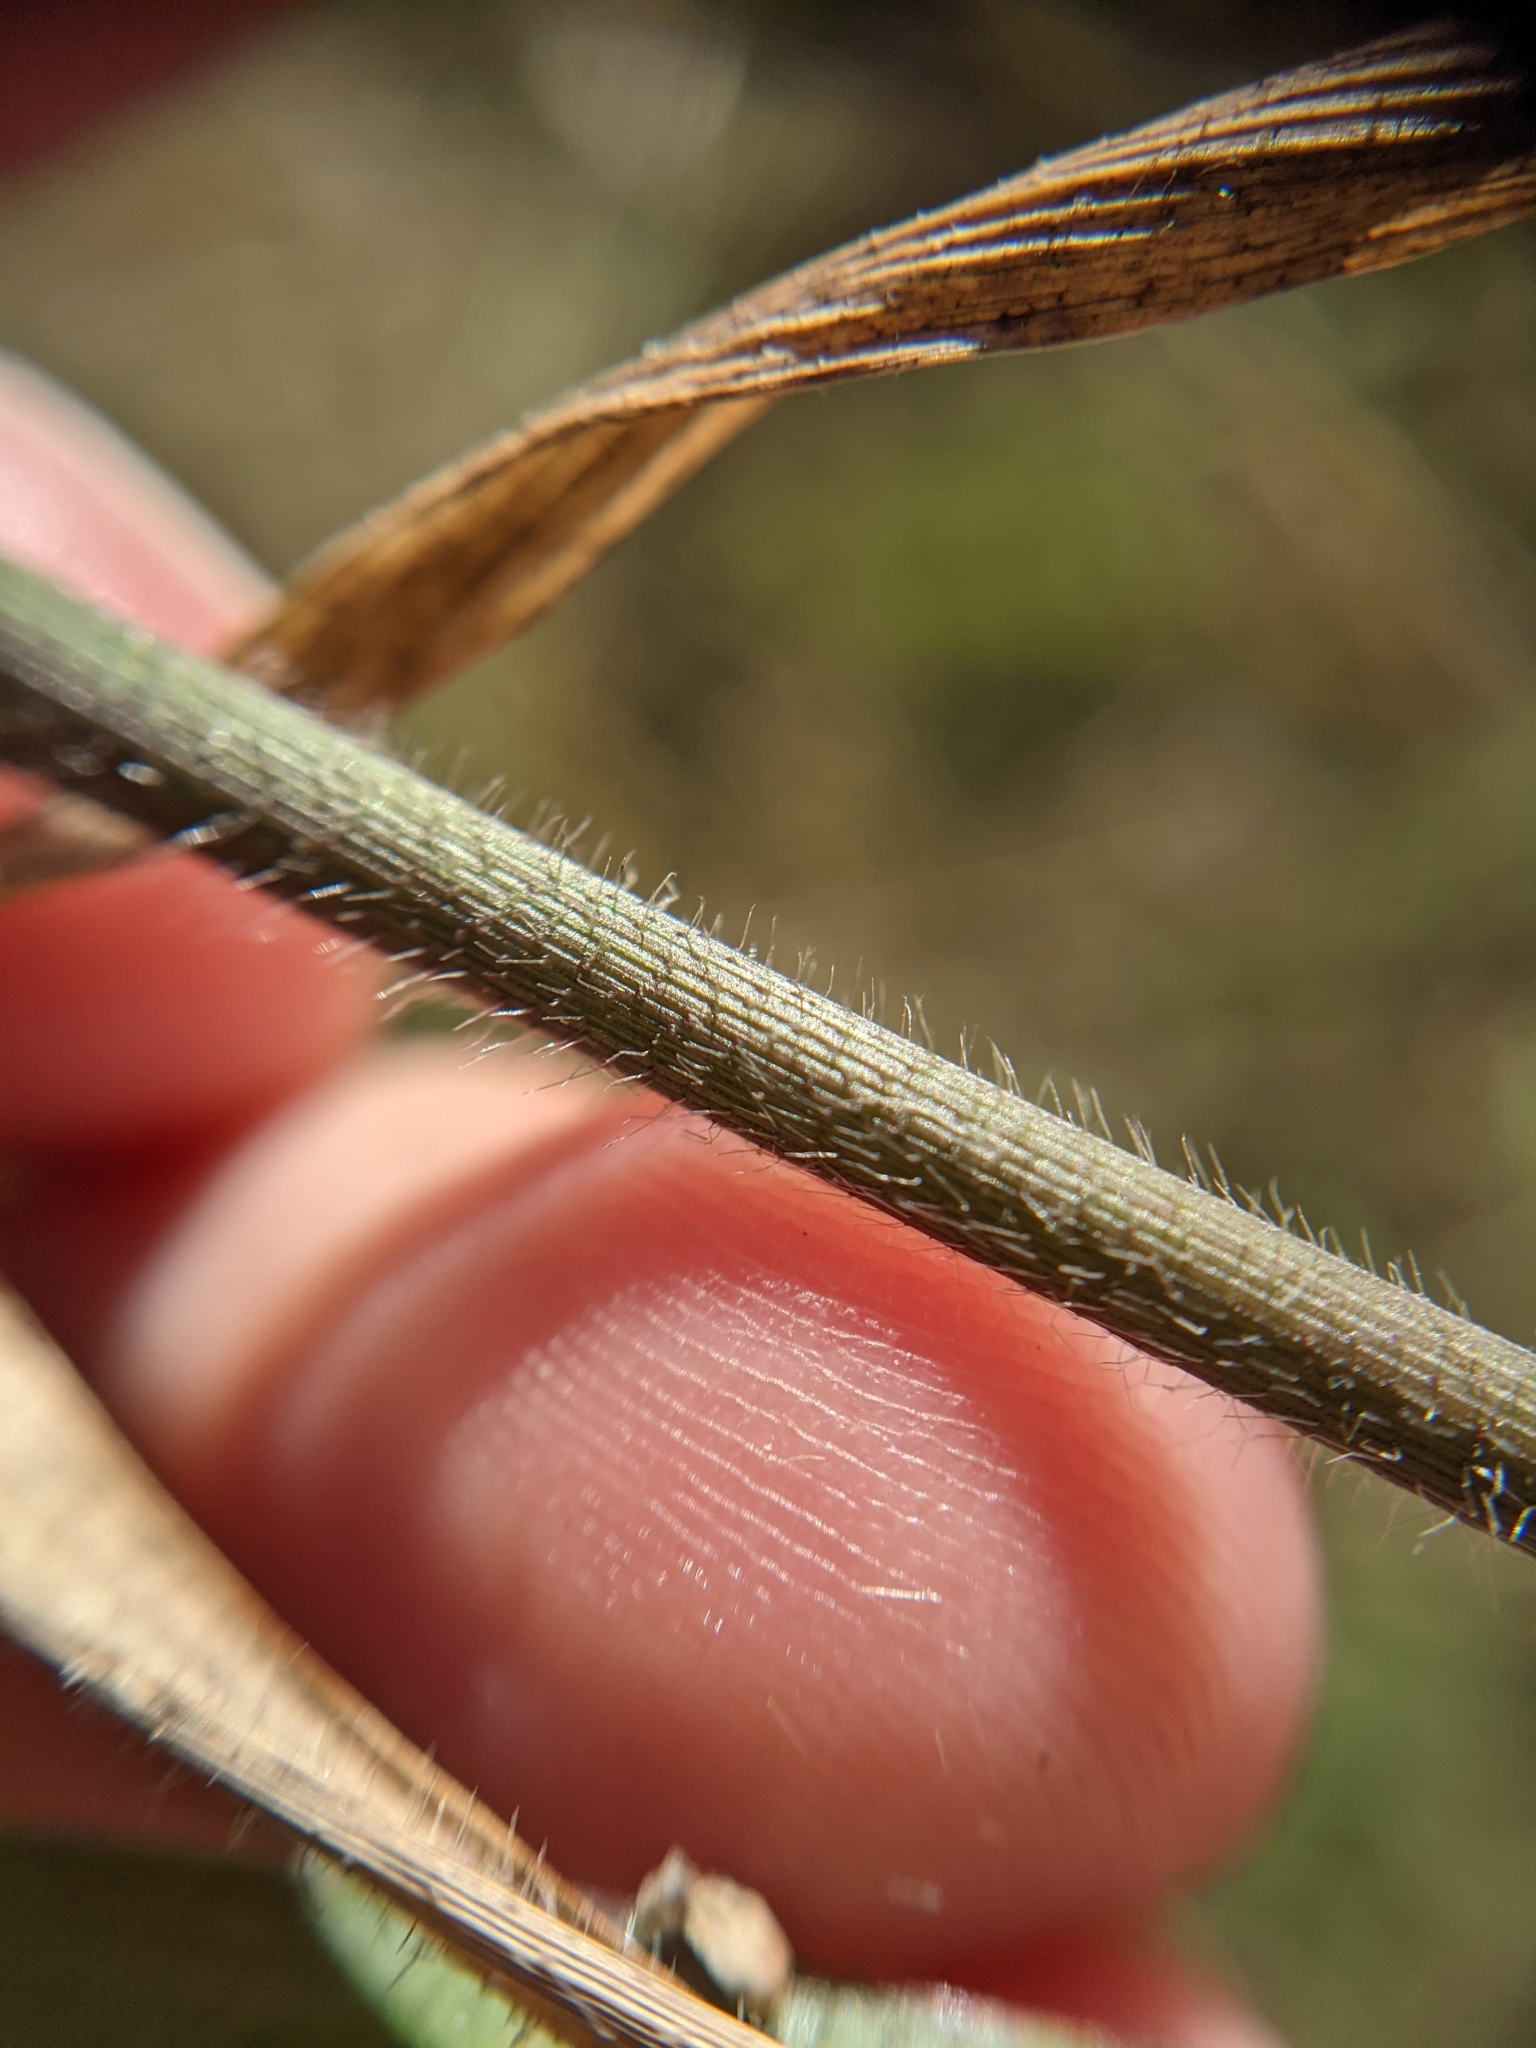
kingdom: Plantae
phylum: Tracheophyta
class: Liliopsida
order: Poales
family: Poaceae
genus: Panicum
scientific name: Panicum capillarioides
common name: Long-beak witchgrass
